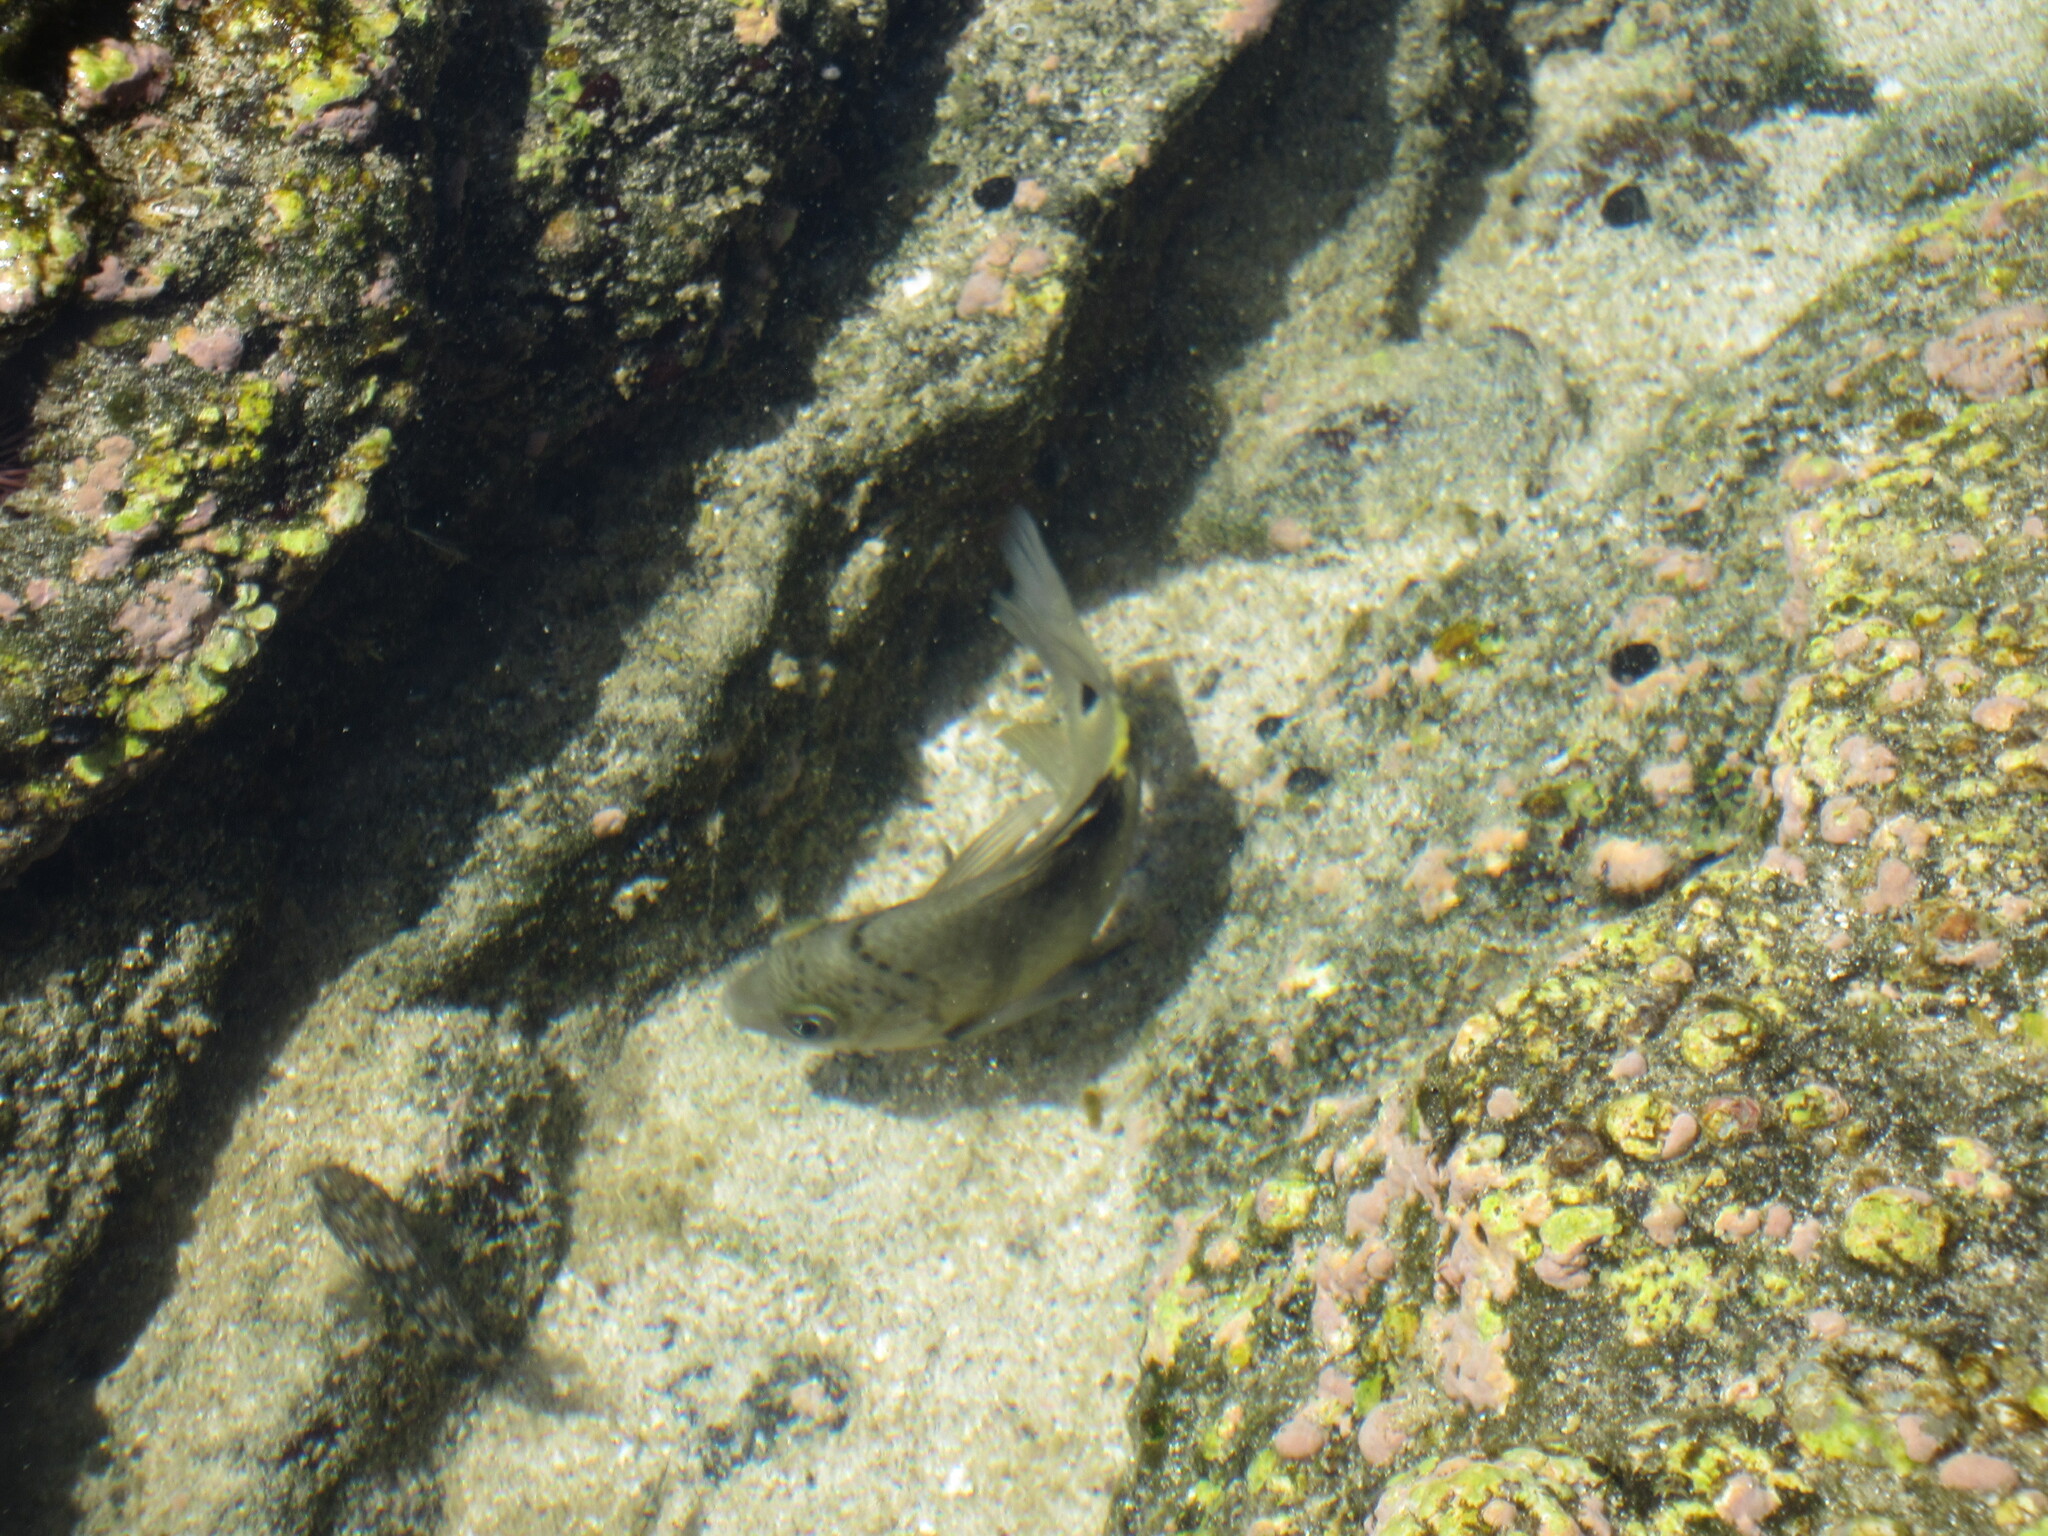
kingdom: Animalia
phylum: Chordata
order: Perciformes
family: Pomacentridae
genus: Abudefduf
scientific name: Abudefduf sordidus
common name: Blackspot sergeant
